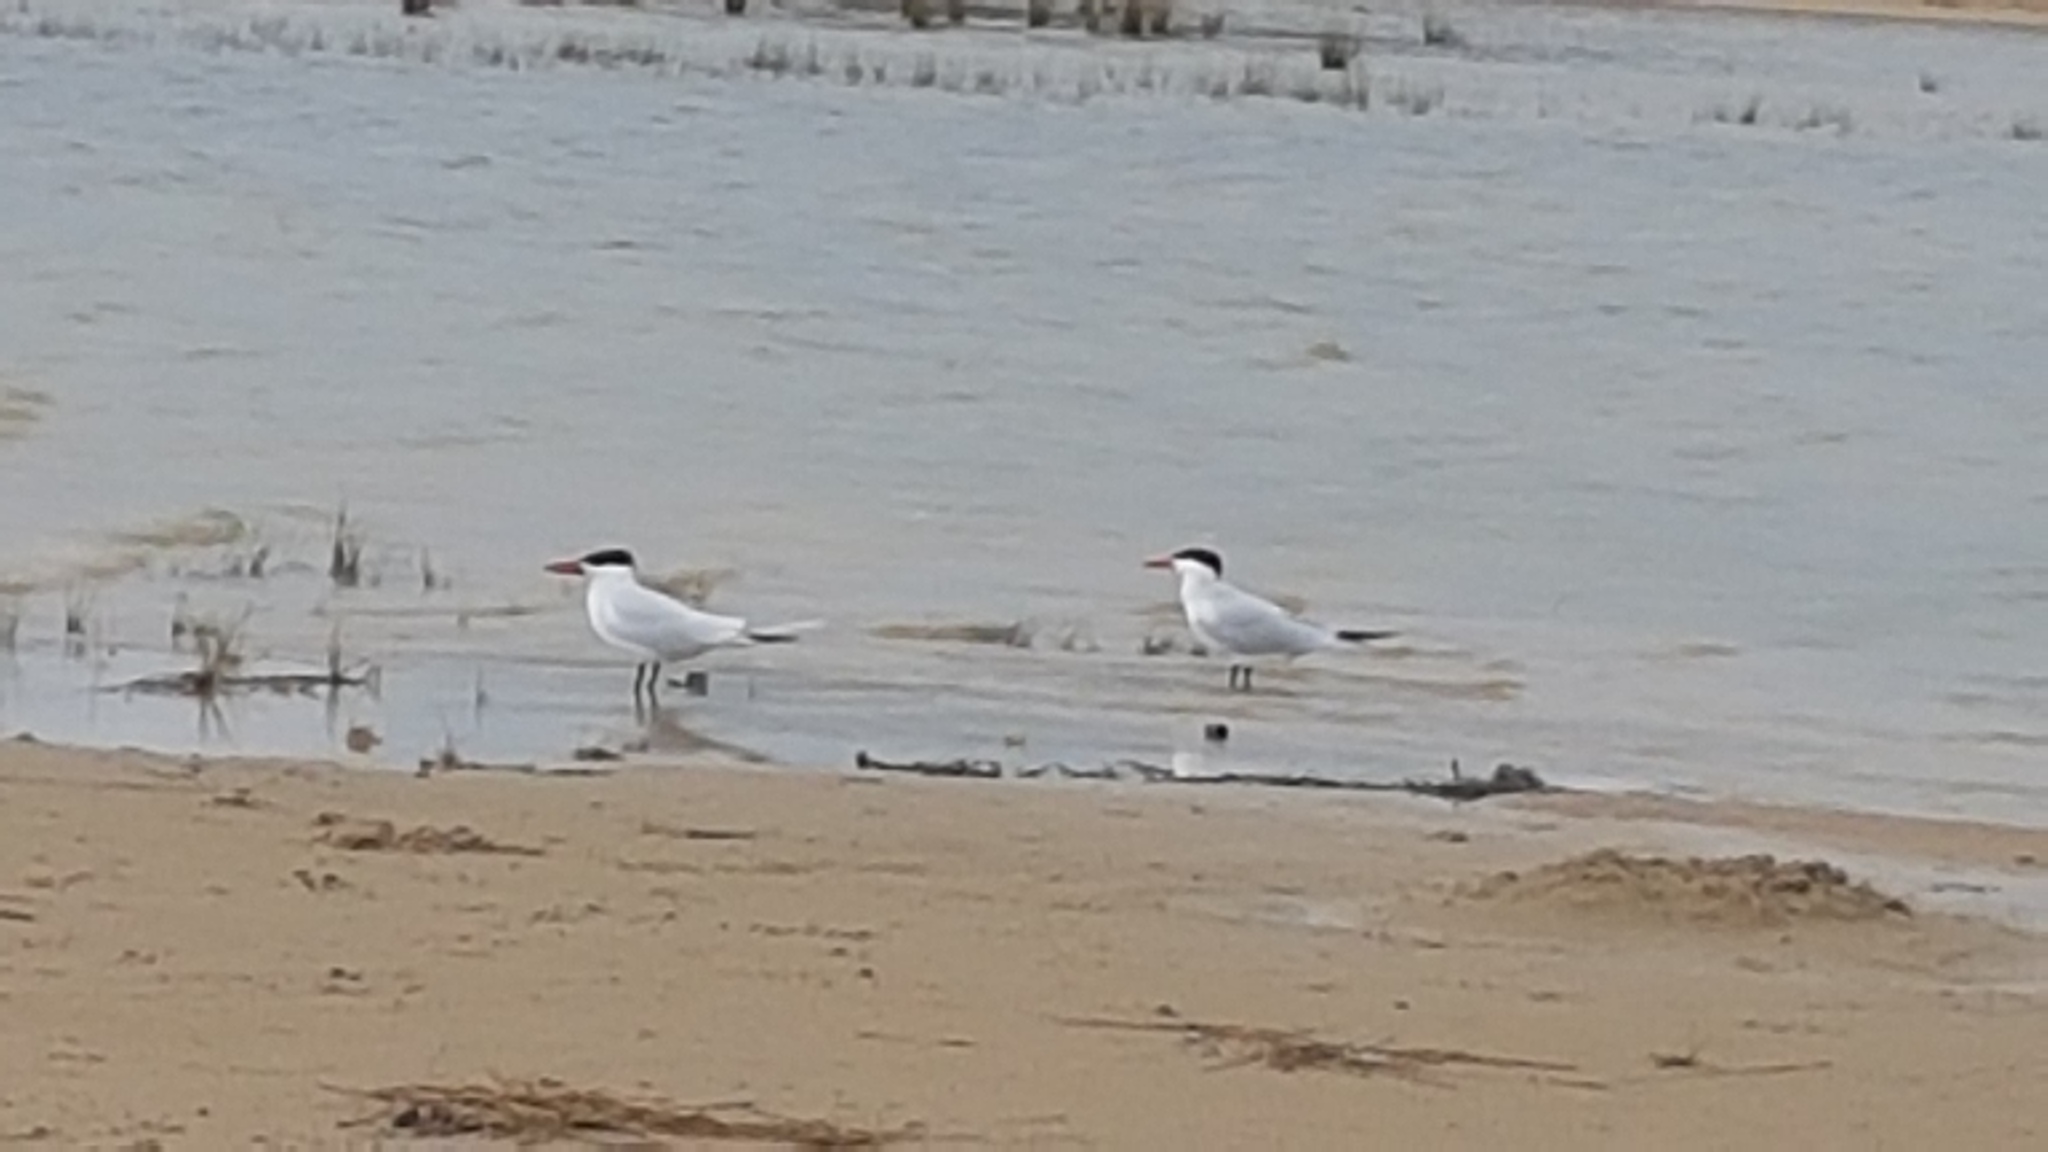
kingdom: Animalia
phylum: Chordata
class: Aves
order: Charadriiformes
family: Laridae
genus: Hydroprogne
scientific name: Hydroprogne caspia
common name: Caspian tern
